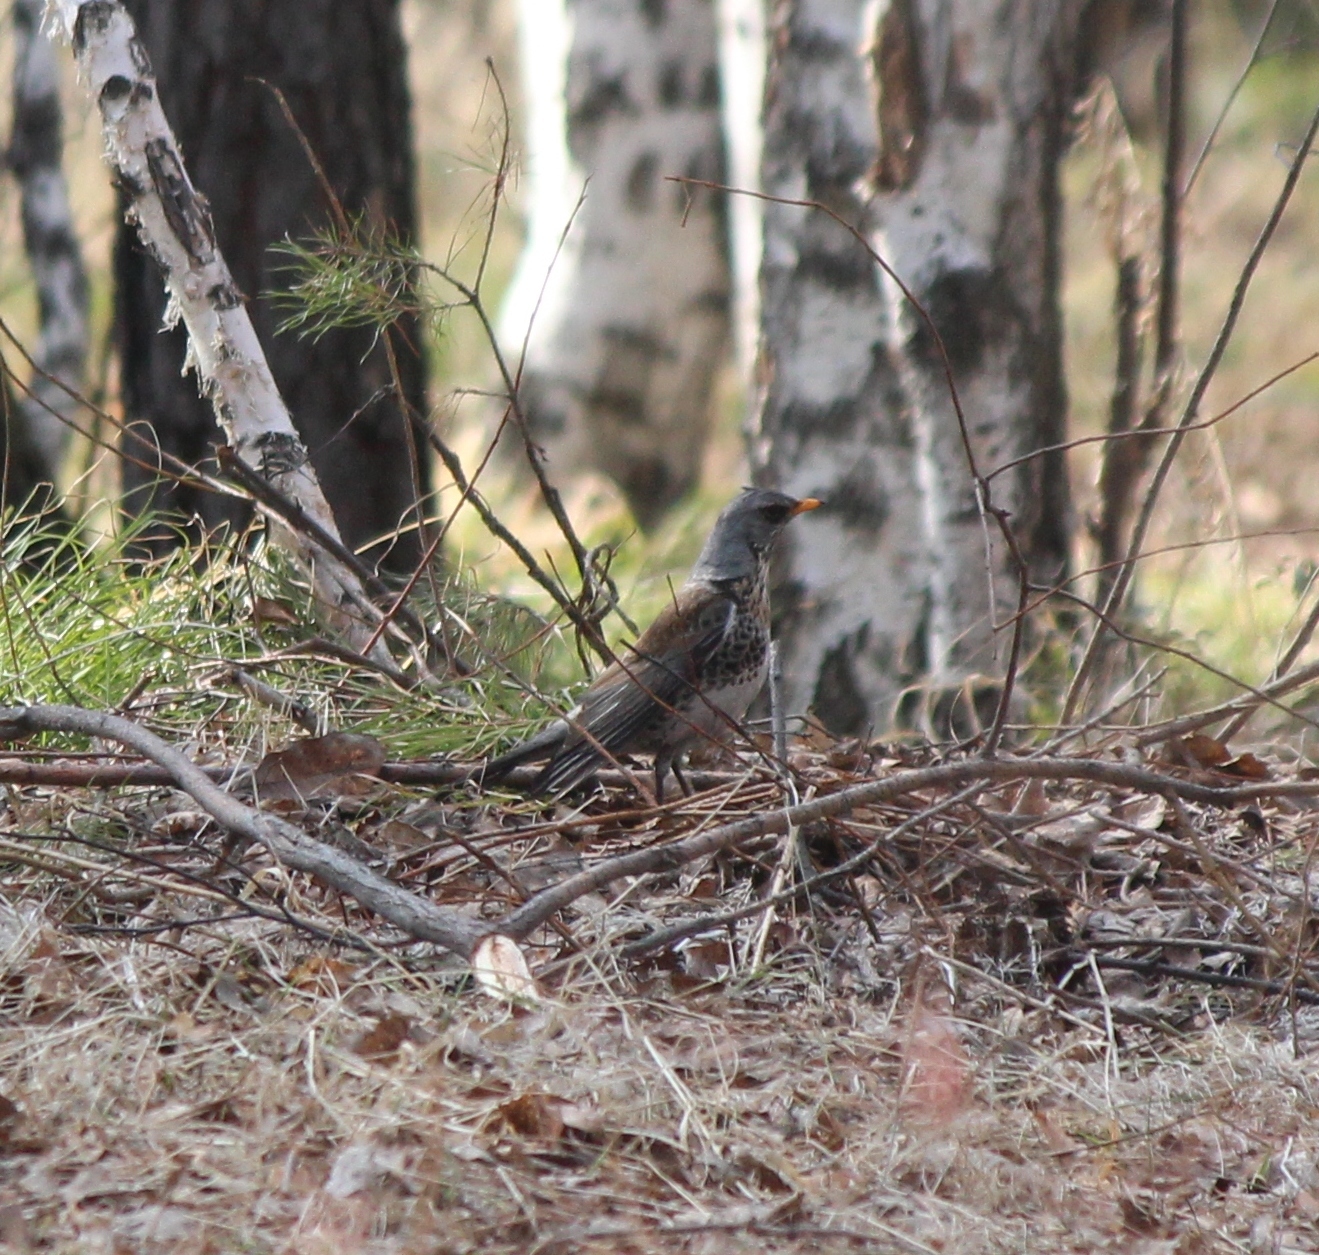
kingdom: Animalia
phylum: Chordata
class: Aves
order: Passeriformes
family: Turdidae
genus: Turdus
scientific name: Turdus pilaris
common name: Fieldfare
